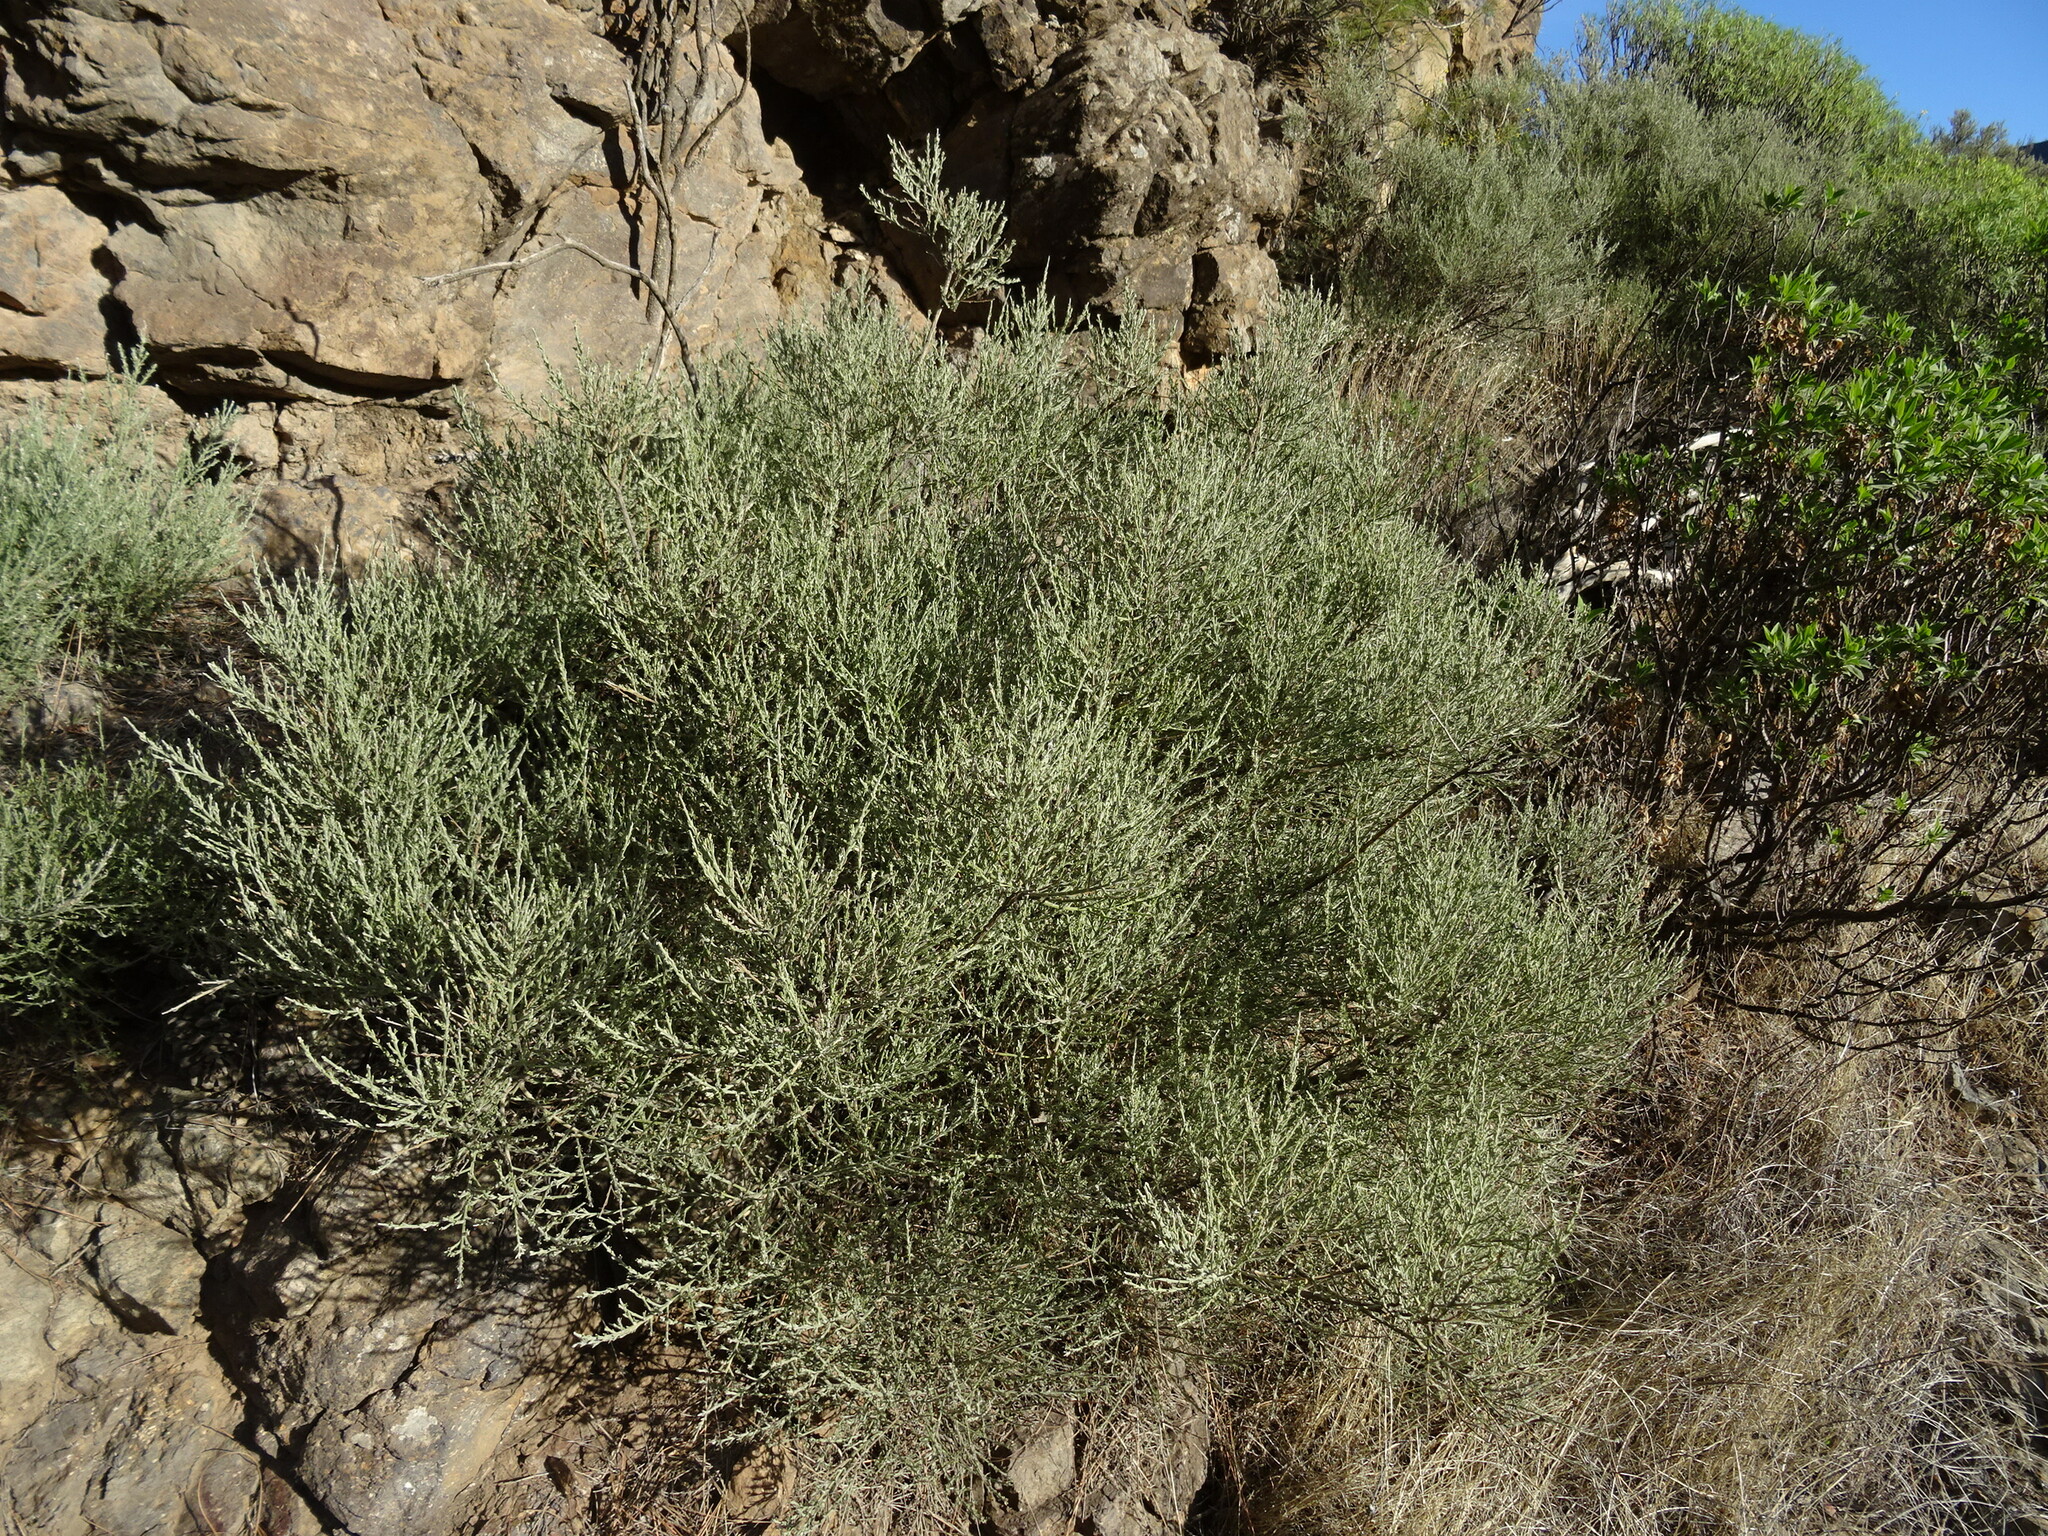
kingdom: Plantae
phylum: Tracheophyta
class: Magnoliopsida
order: Fabales
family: Fabaceae
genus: Genista
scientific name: Genista microphylla
